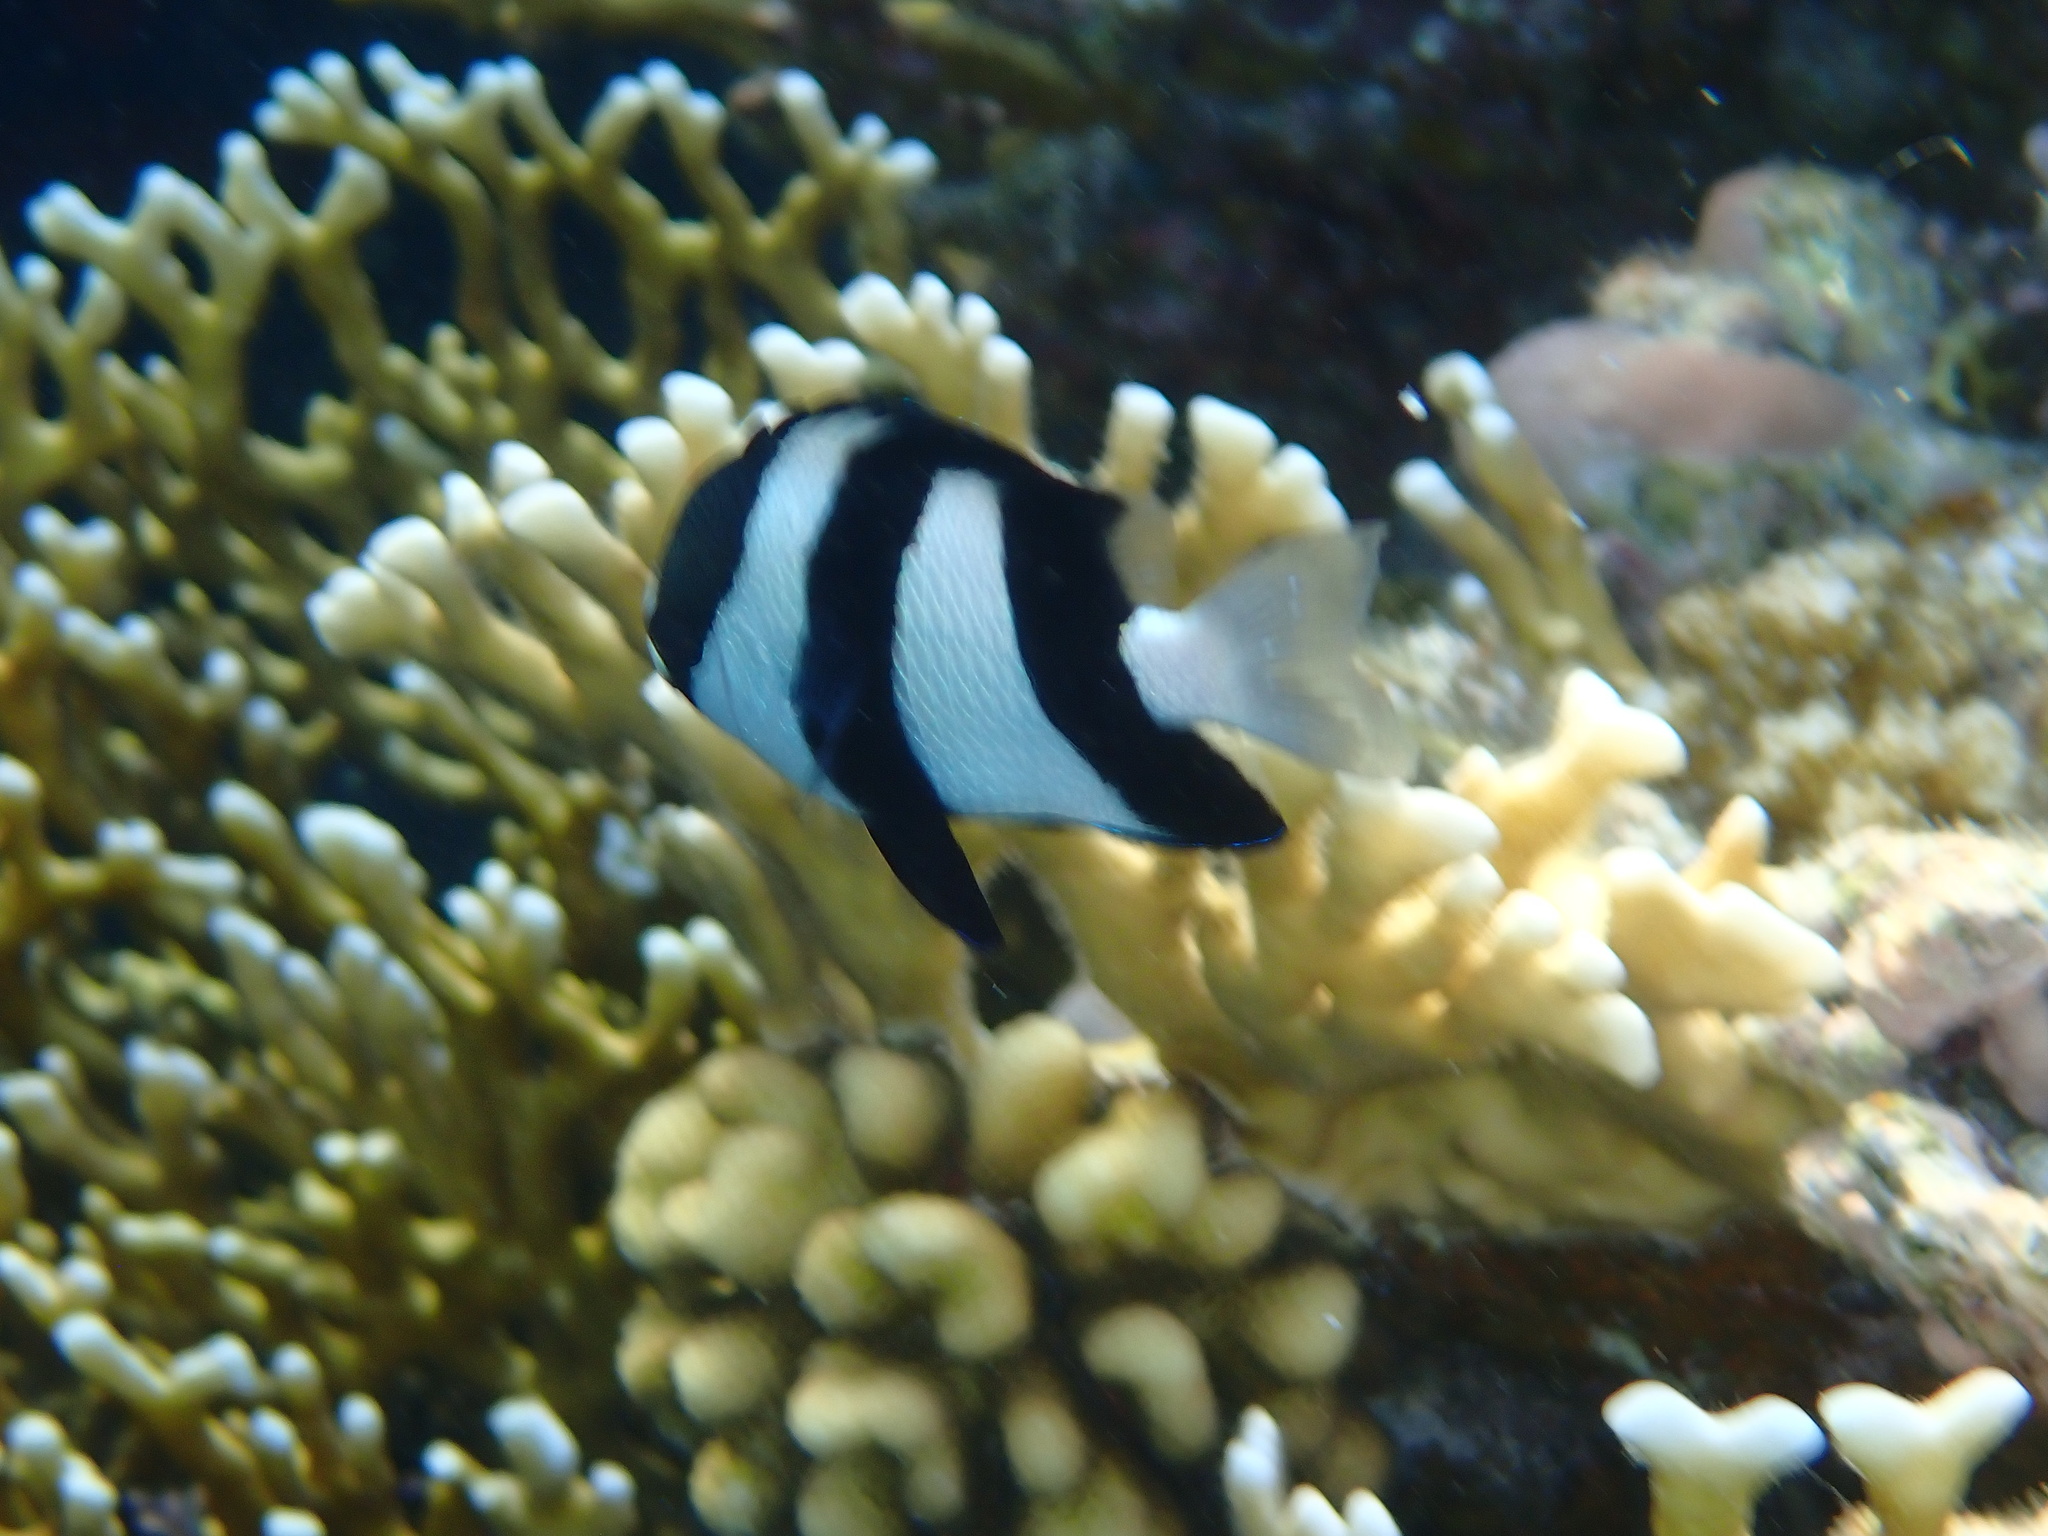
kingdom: Animalia
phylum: Chordata
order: Perciformes
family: Pomacentridae
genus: Dascyllus
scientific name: Dascyllus abudafur
